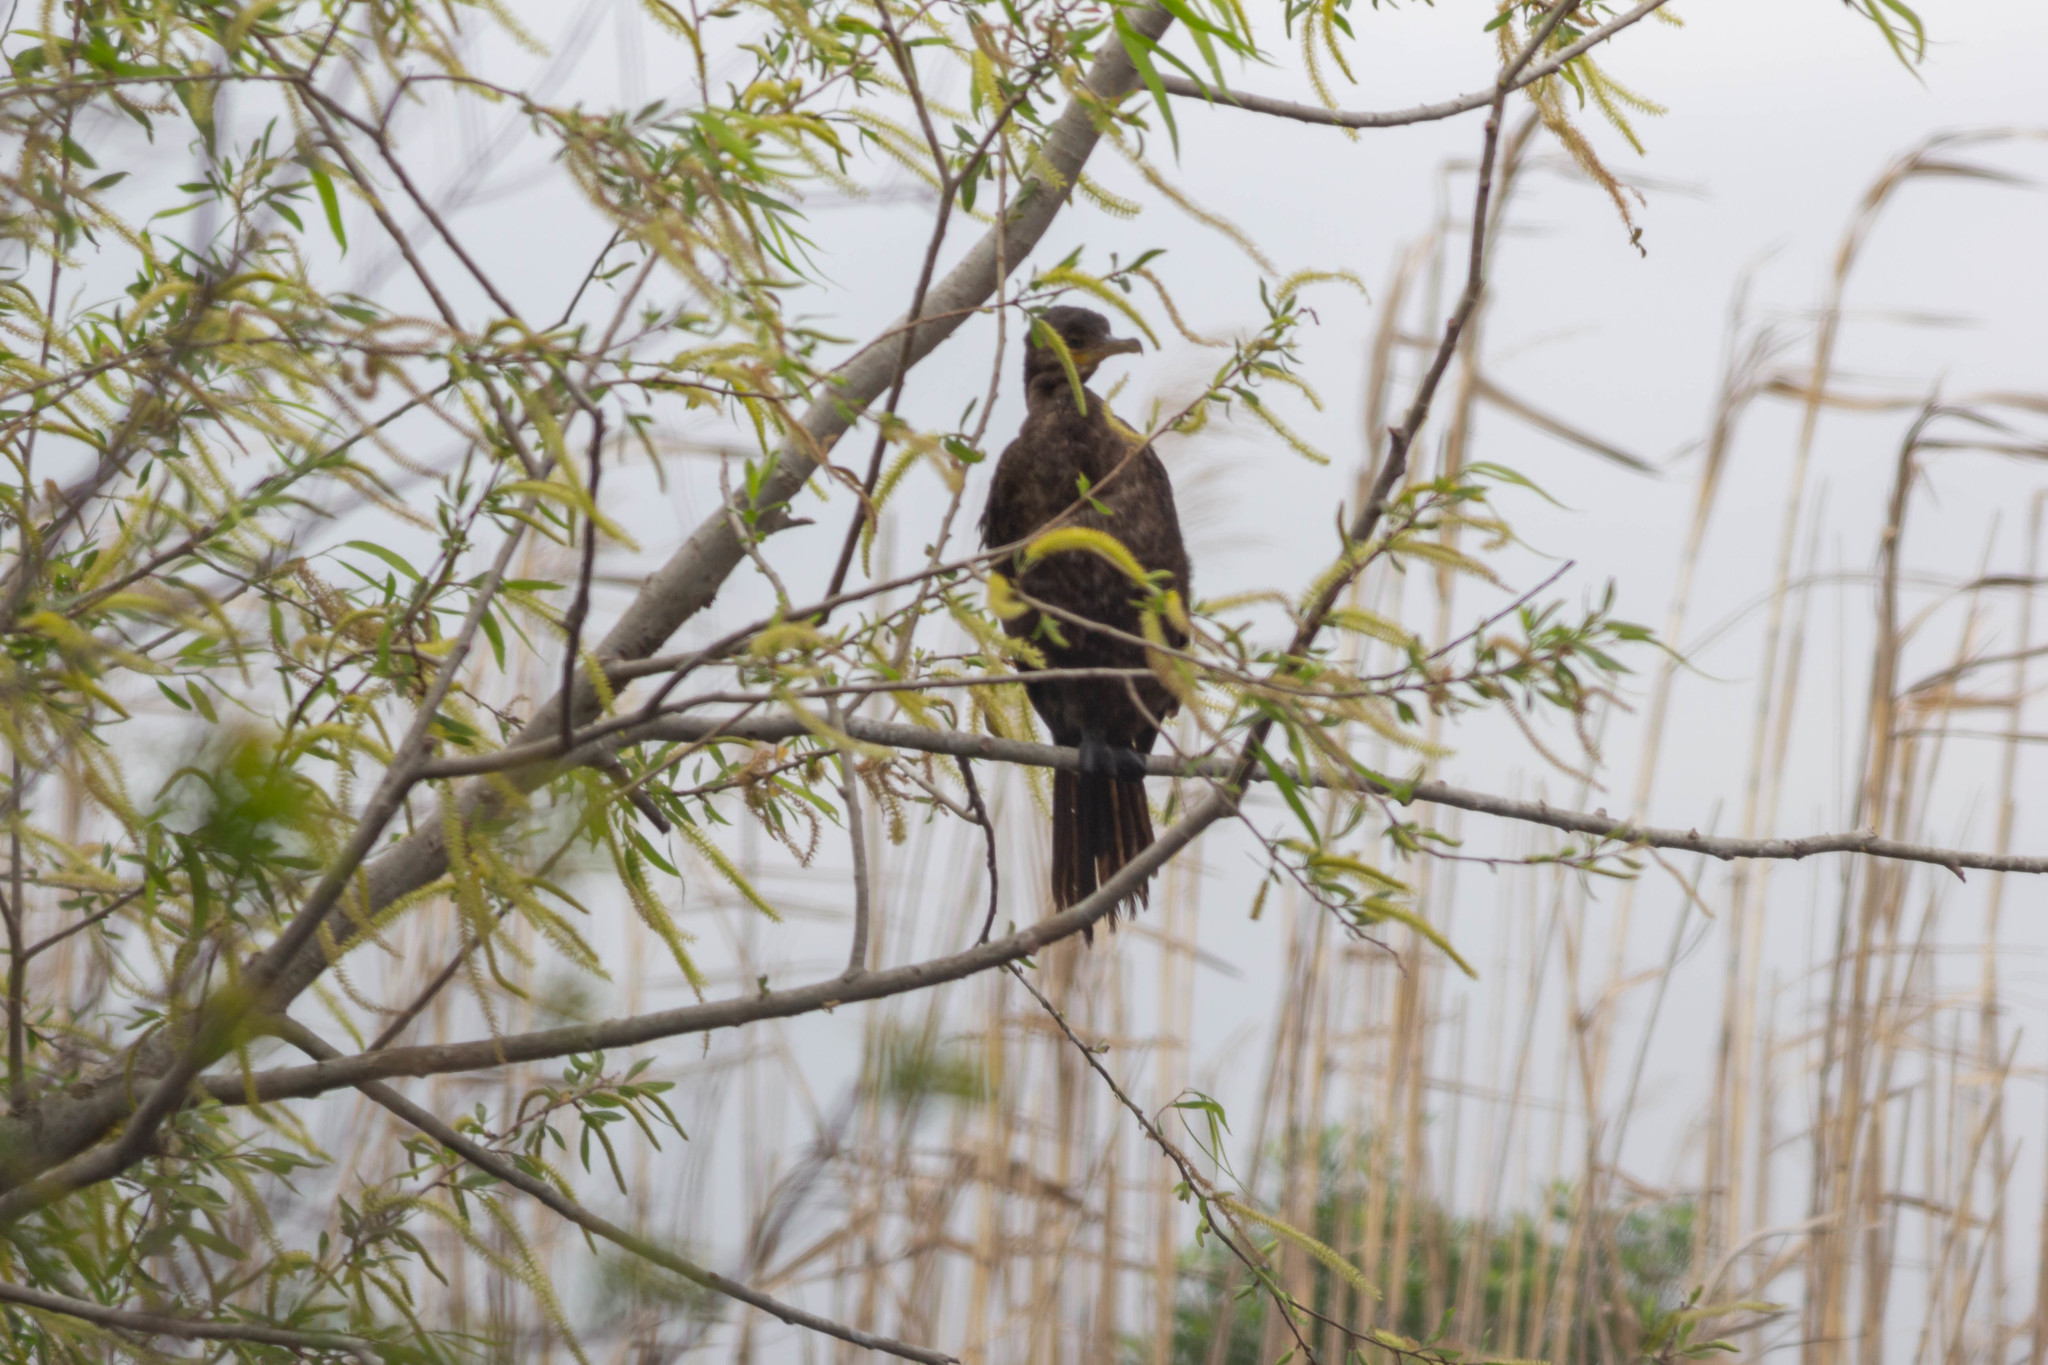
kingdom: Animalia
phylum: Chordata
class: Aves
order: Suliformes
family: Phalacrocoracidae
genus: Phalacrocorax
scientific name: Phalacrocorax brasilianus
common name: Neotropic cormorant
